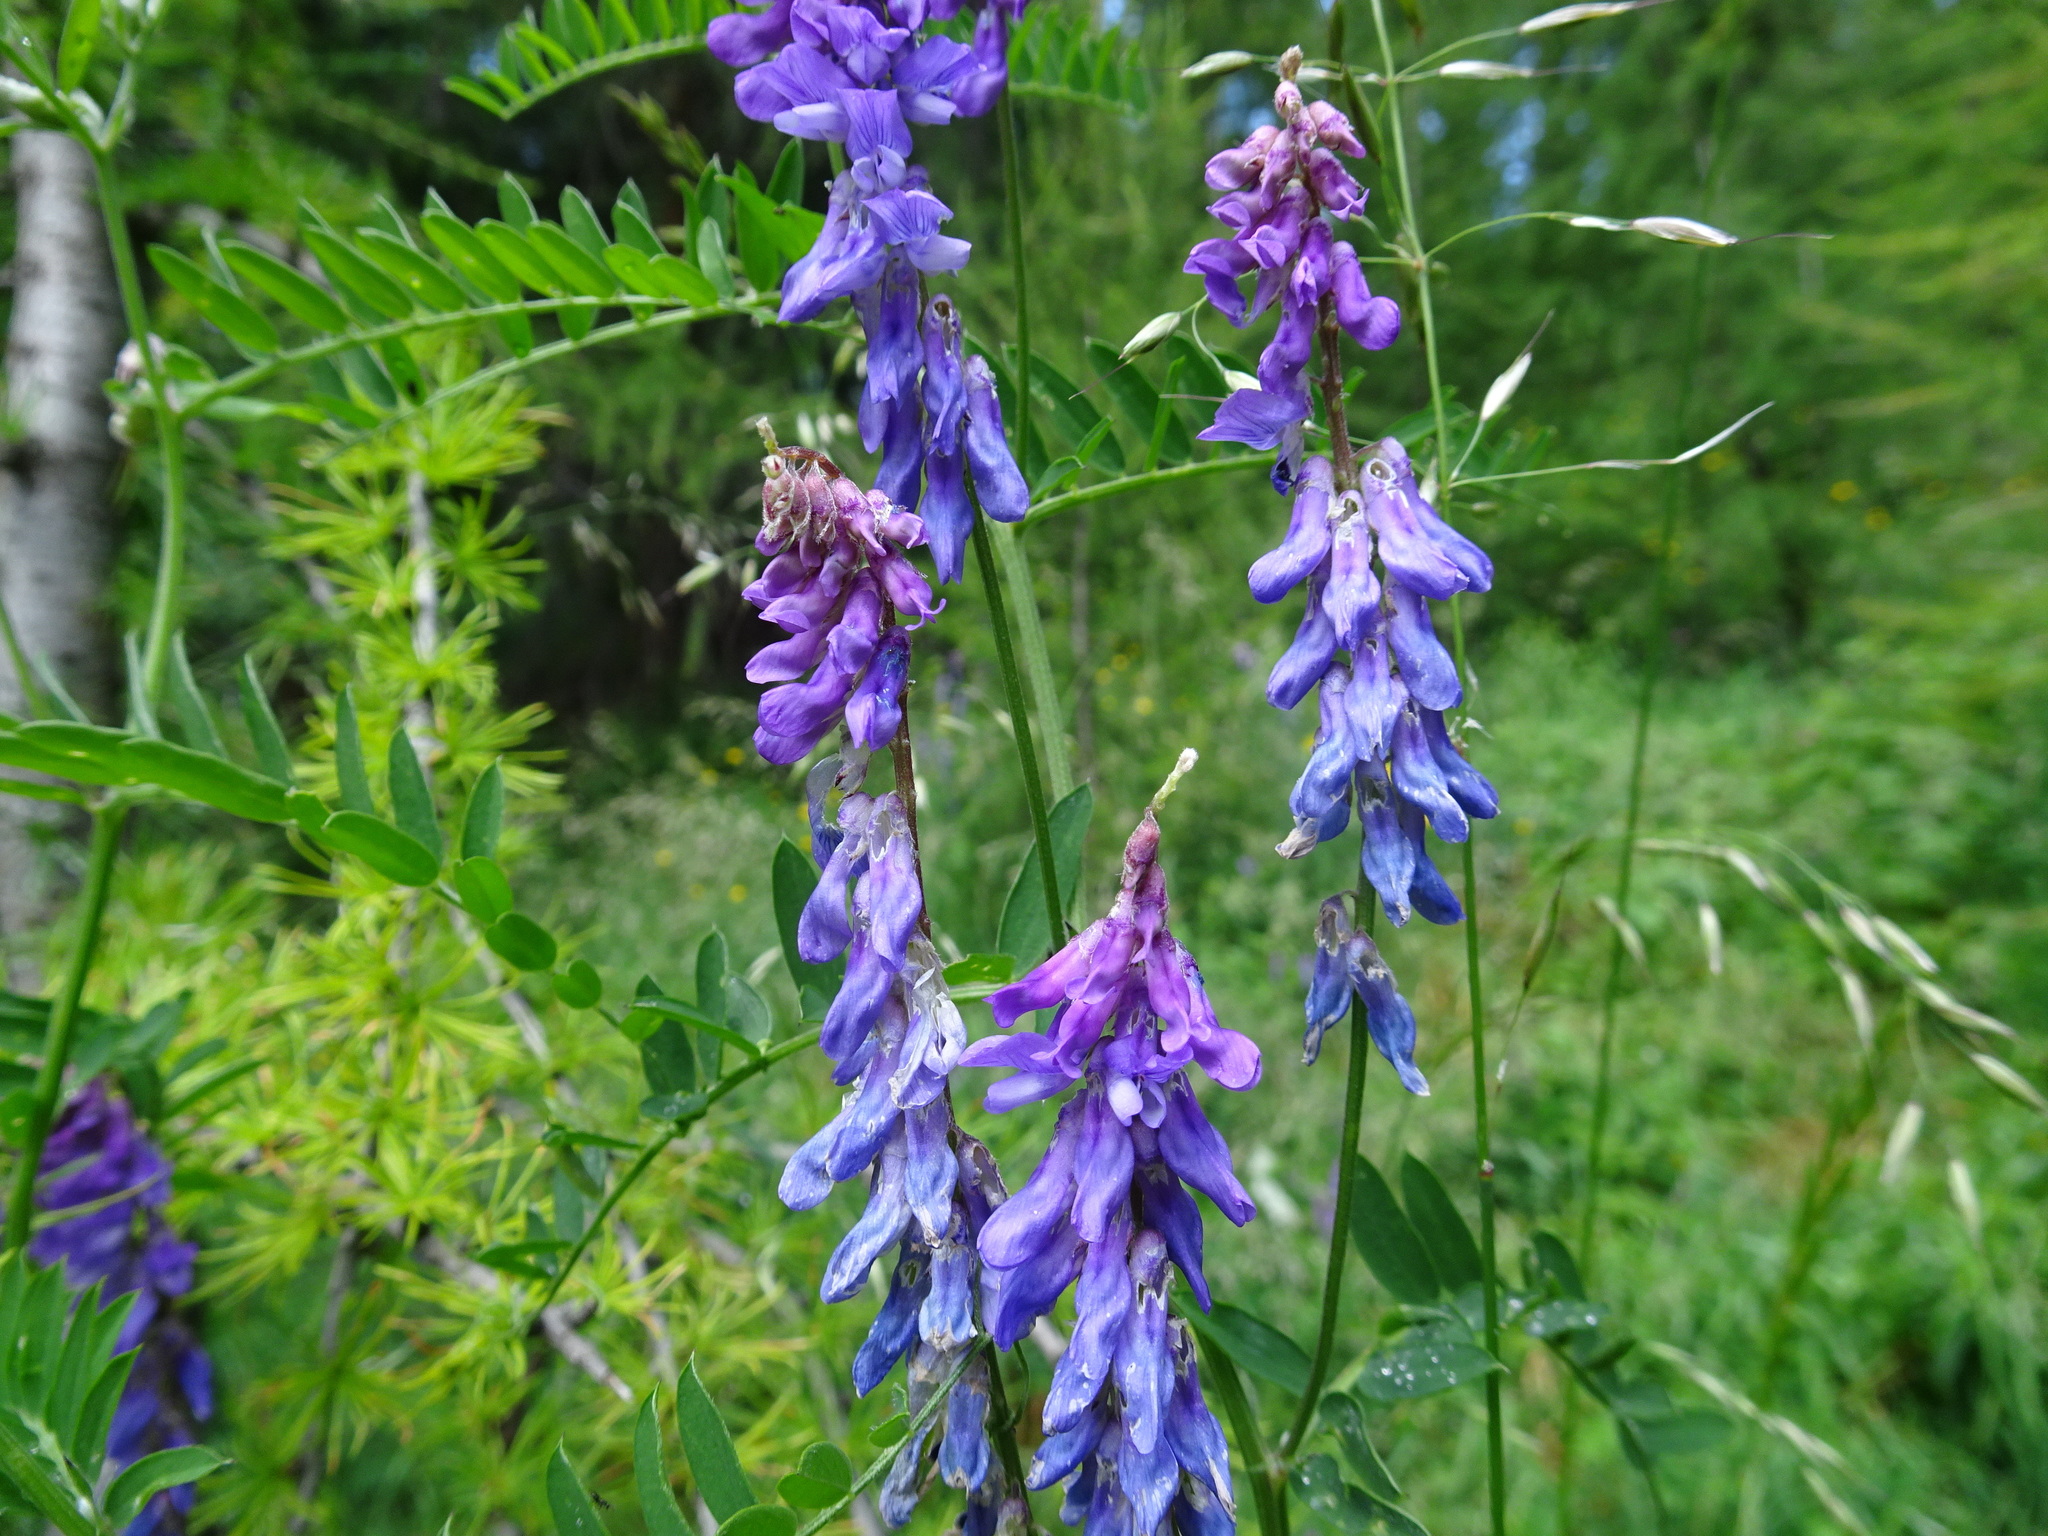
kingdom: Plantae
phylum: Tracheophyta
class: Magnoliopsida
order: Fabales
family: Fabaceae
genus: Vicia
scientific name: Vicia cracca
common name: Bird vetch
